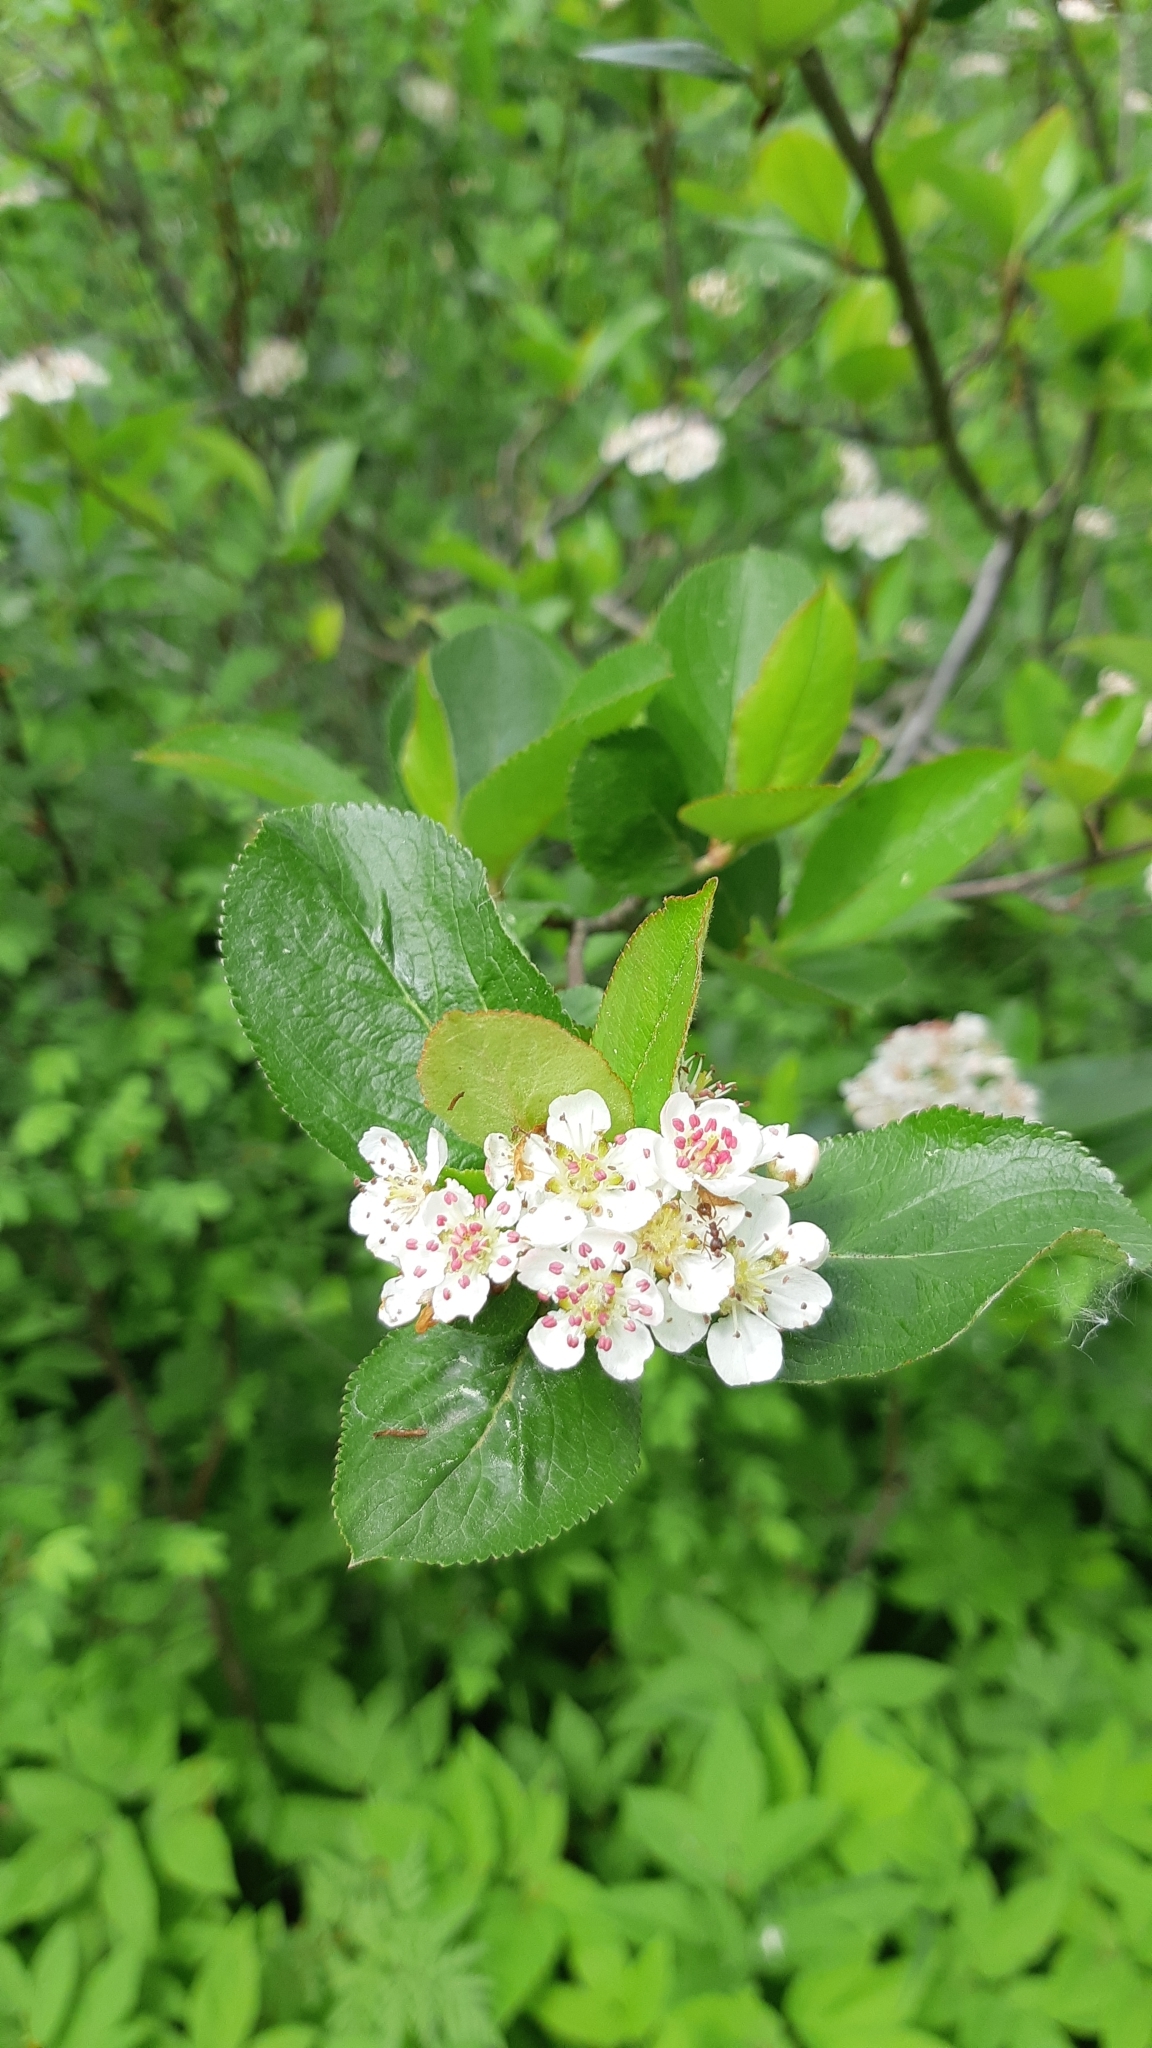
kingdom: Plantae
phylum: Tracheophyta
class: Magnoliopsida
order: Rosales
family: Rosaceae
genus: Sorbaronia
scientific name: Sorbaronia arsenii
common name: Arsène's mountain-ash
